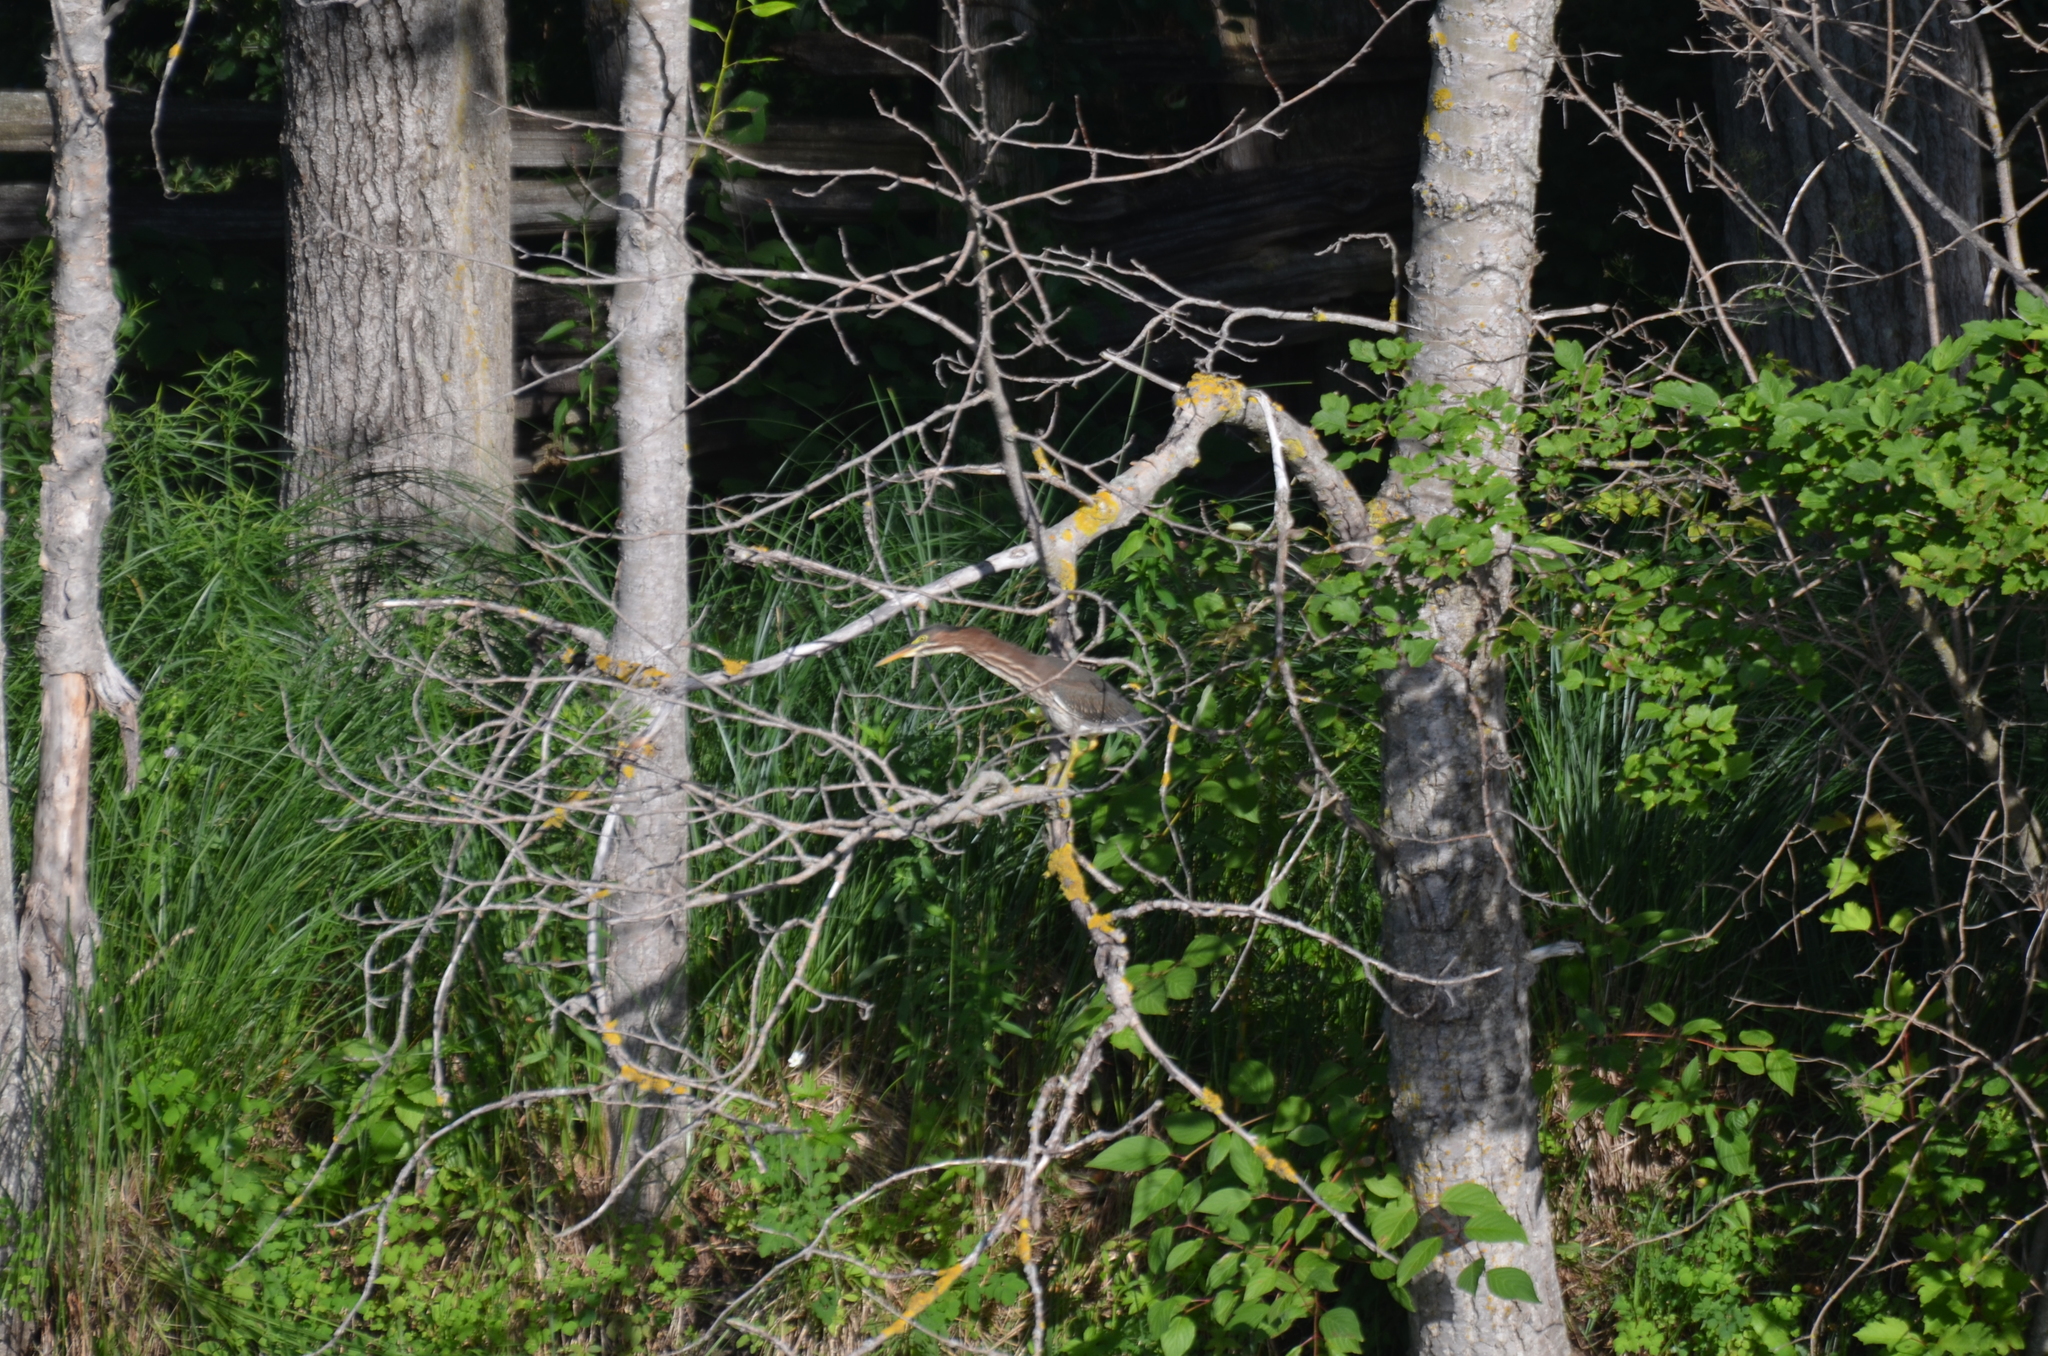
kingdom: Animalia
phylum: Chordata
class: Aves
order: Pelecaniformes
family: Ardeidae
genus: Butorides
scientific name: Butorides virescens
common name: Green heron
